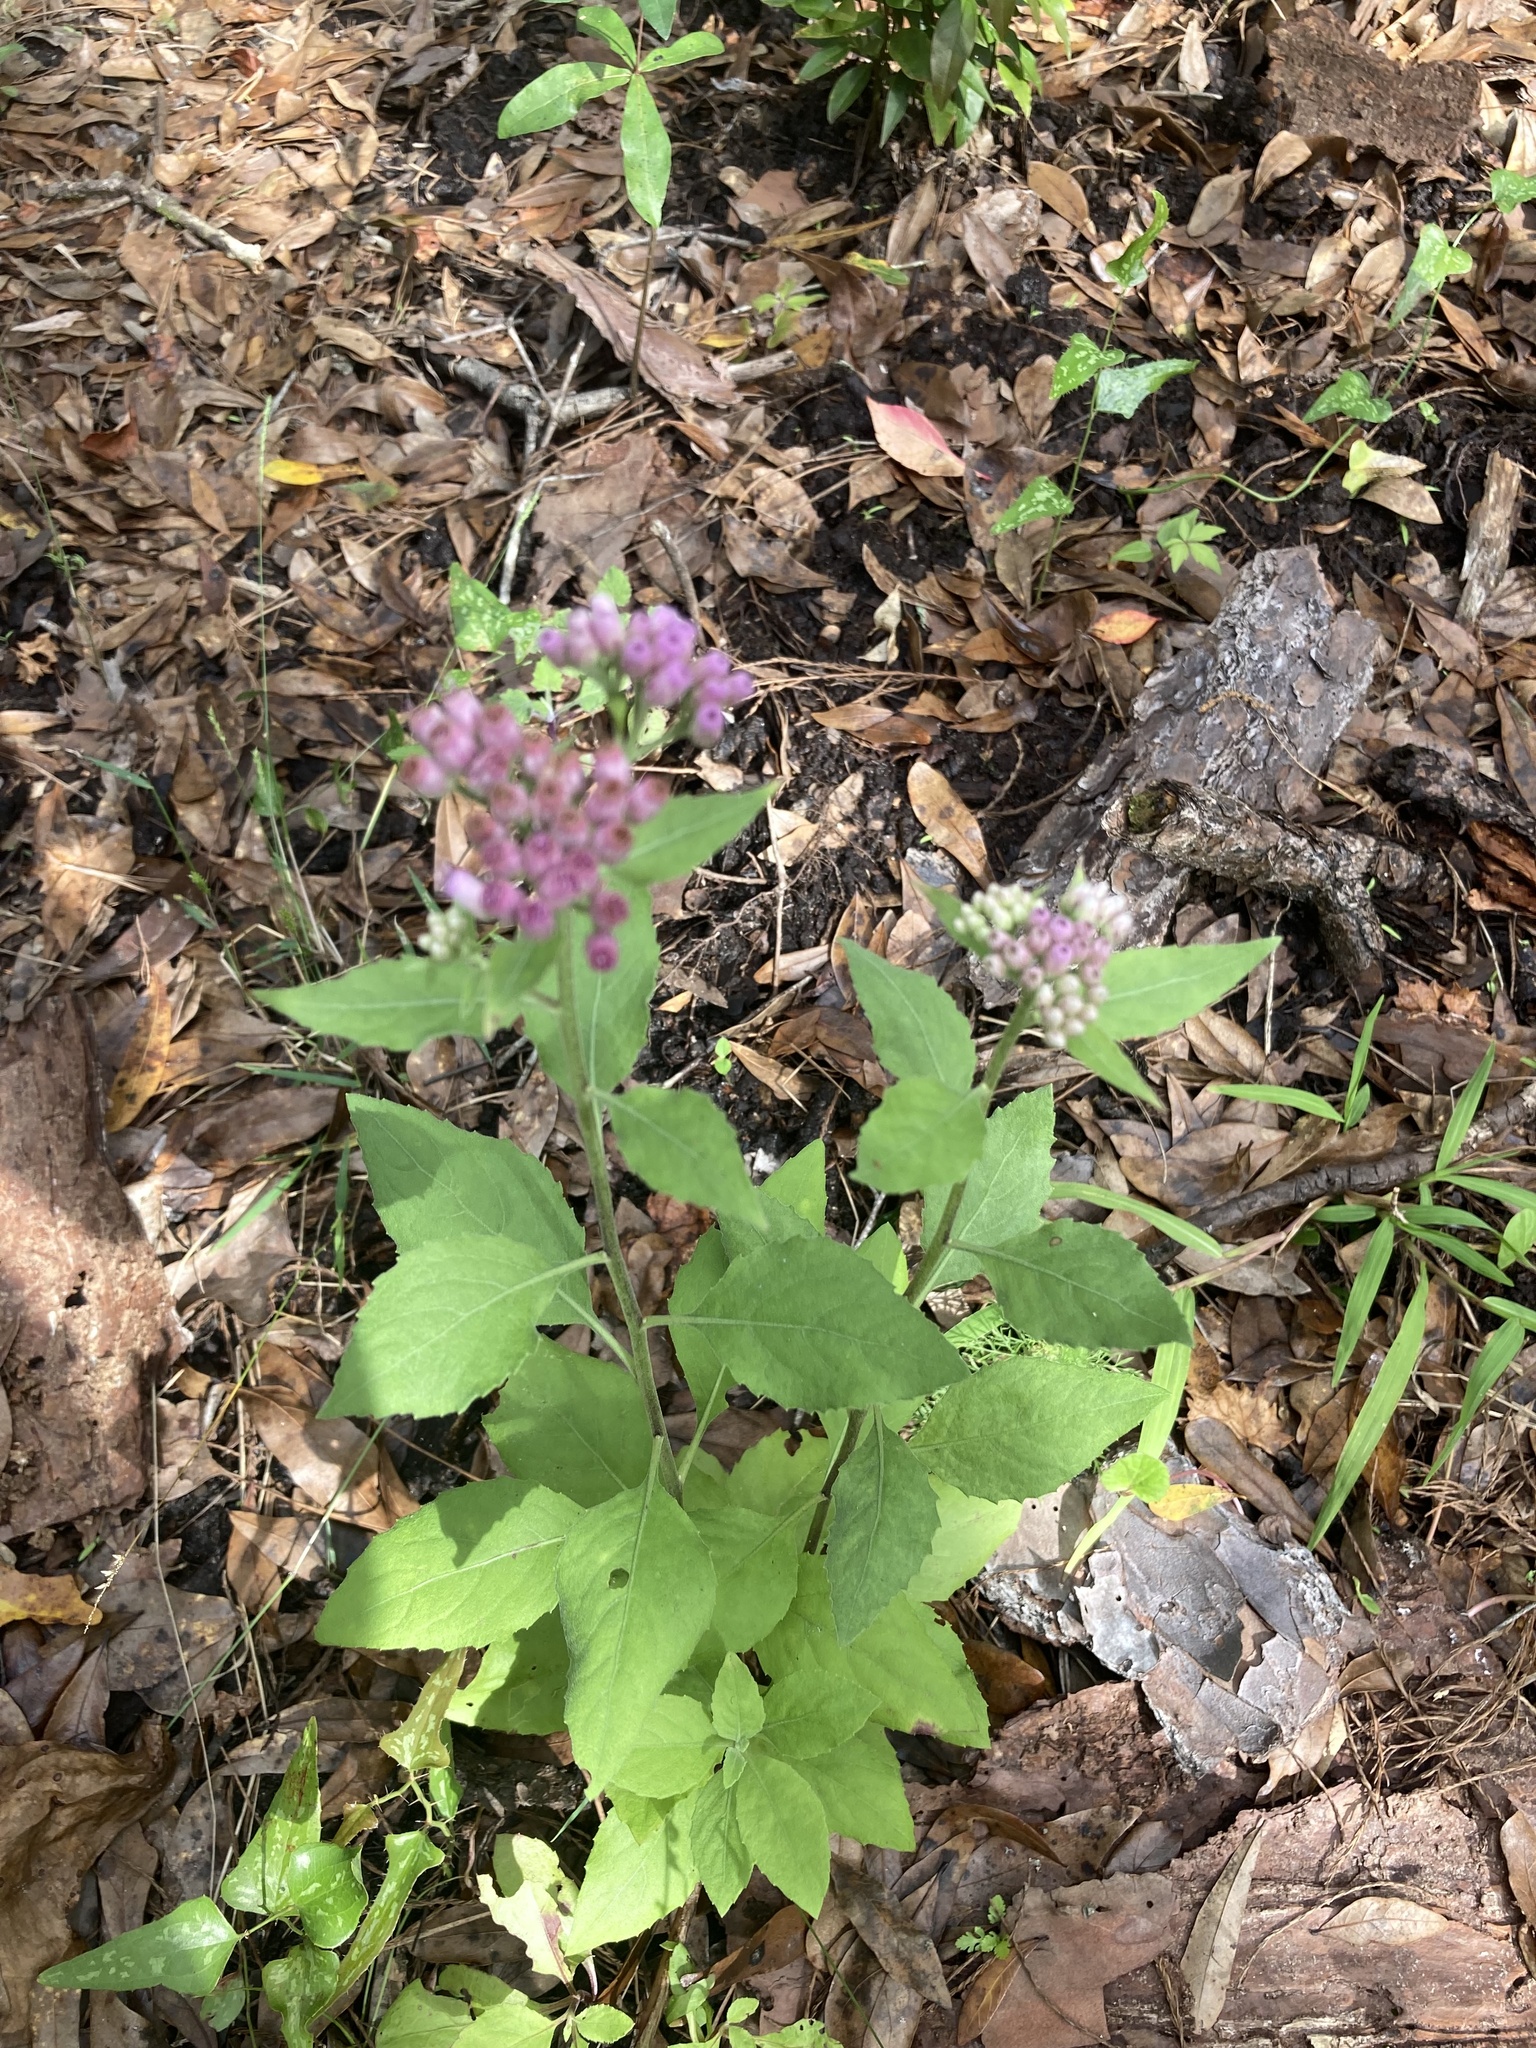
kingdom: Plantae
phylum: Tracheophyta
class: Magnoliopsida
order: Asterales
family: Asteraceae
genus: Pluchea
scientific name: Pluchea odorata
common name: Saltmarsh fleabane
